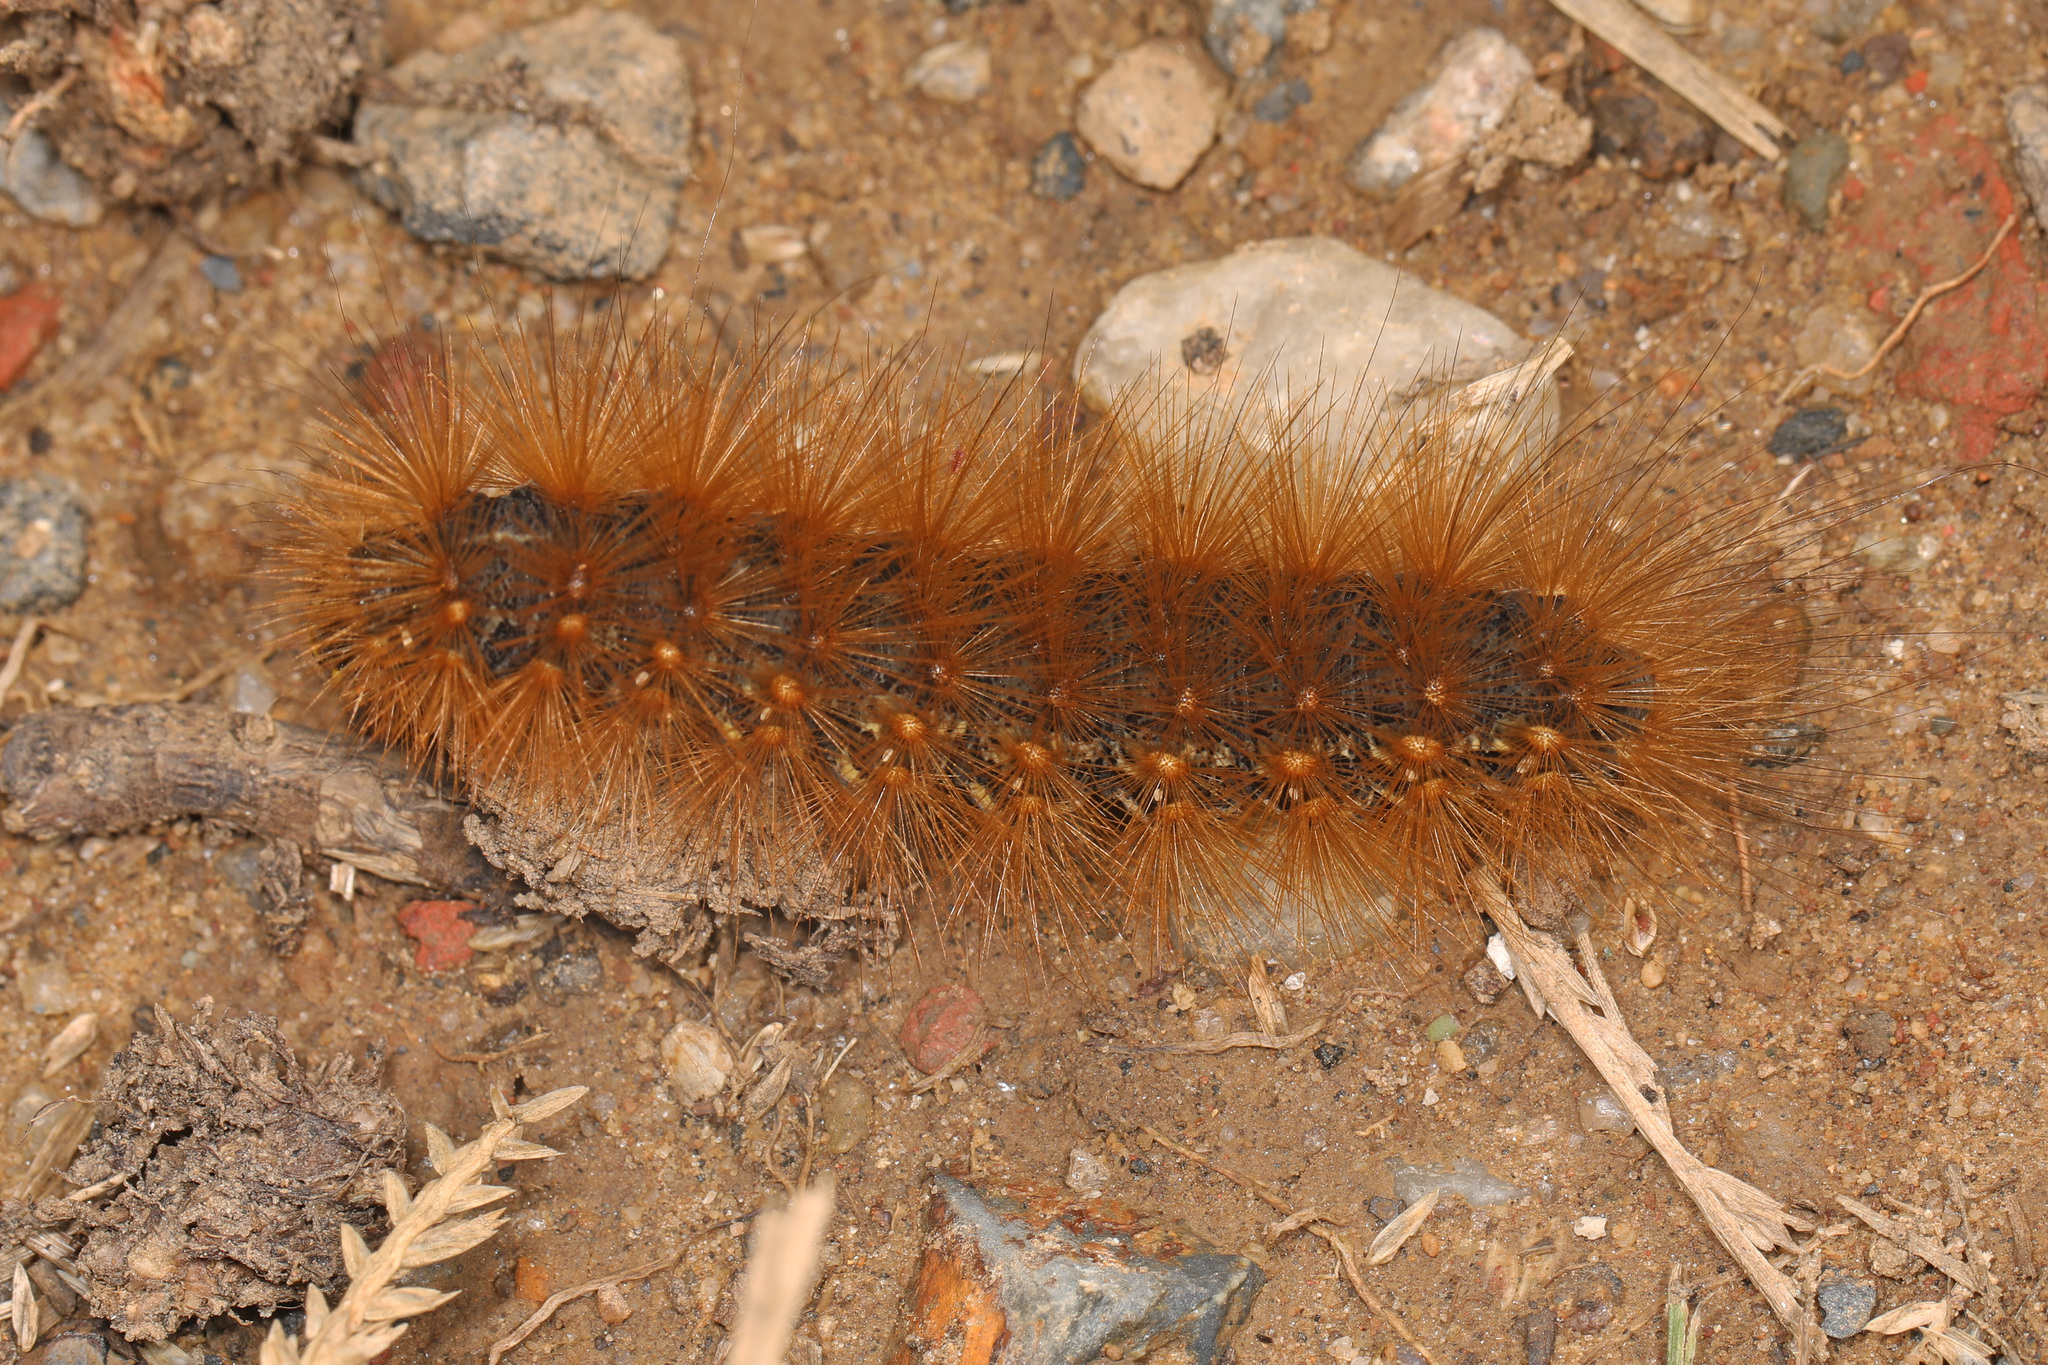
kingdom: Animalia
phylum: Arthropoda
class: Insecta
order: Lepidoptera
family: Erebidae
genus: Estigmene
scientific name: Estigmene acrea
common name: Salt marsh moth
